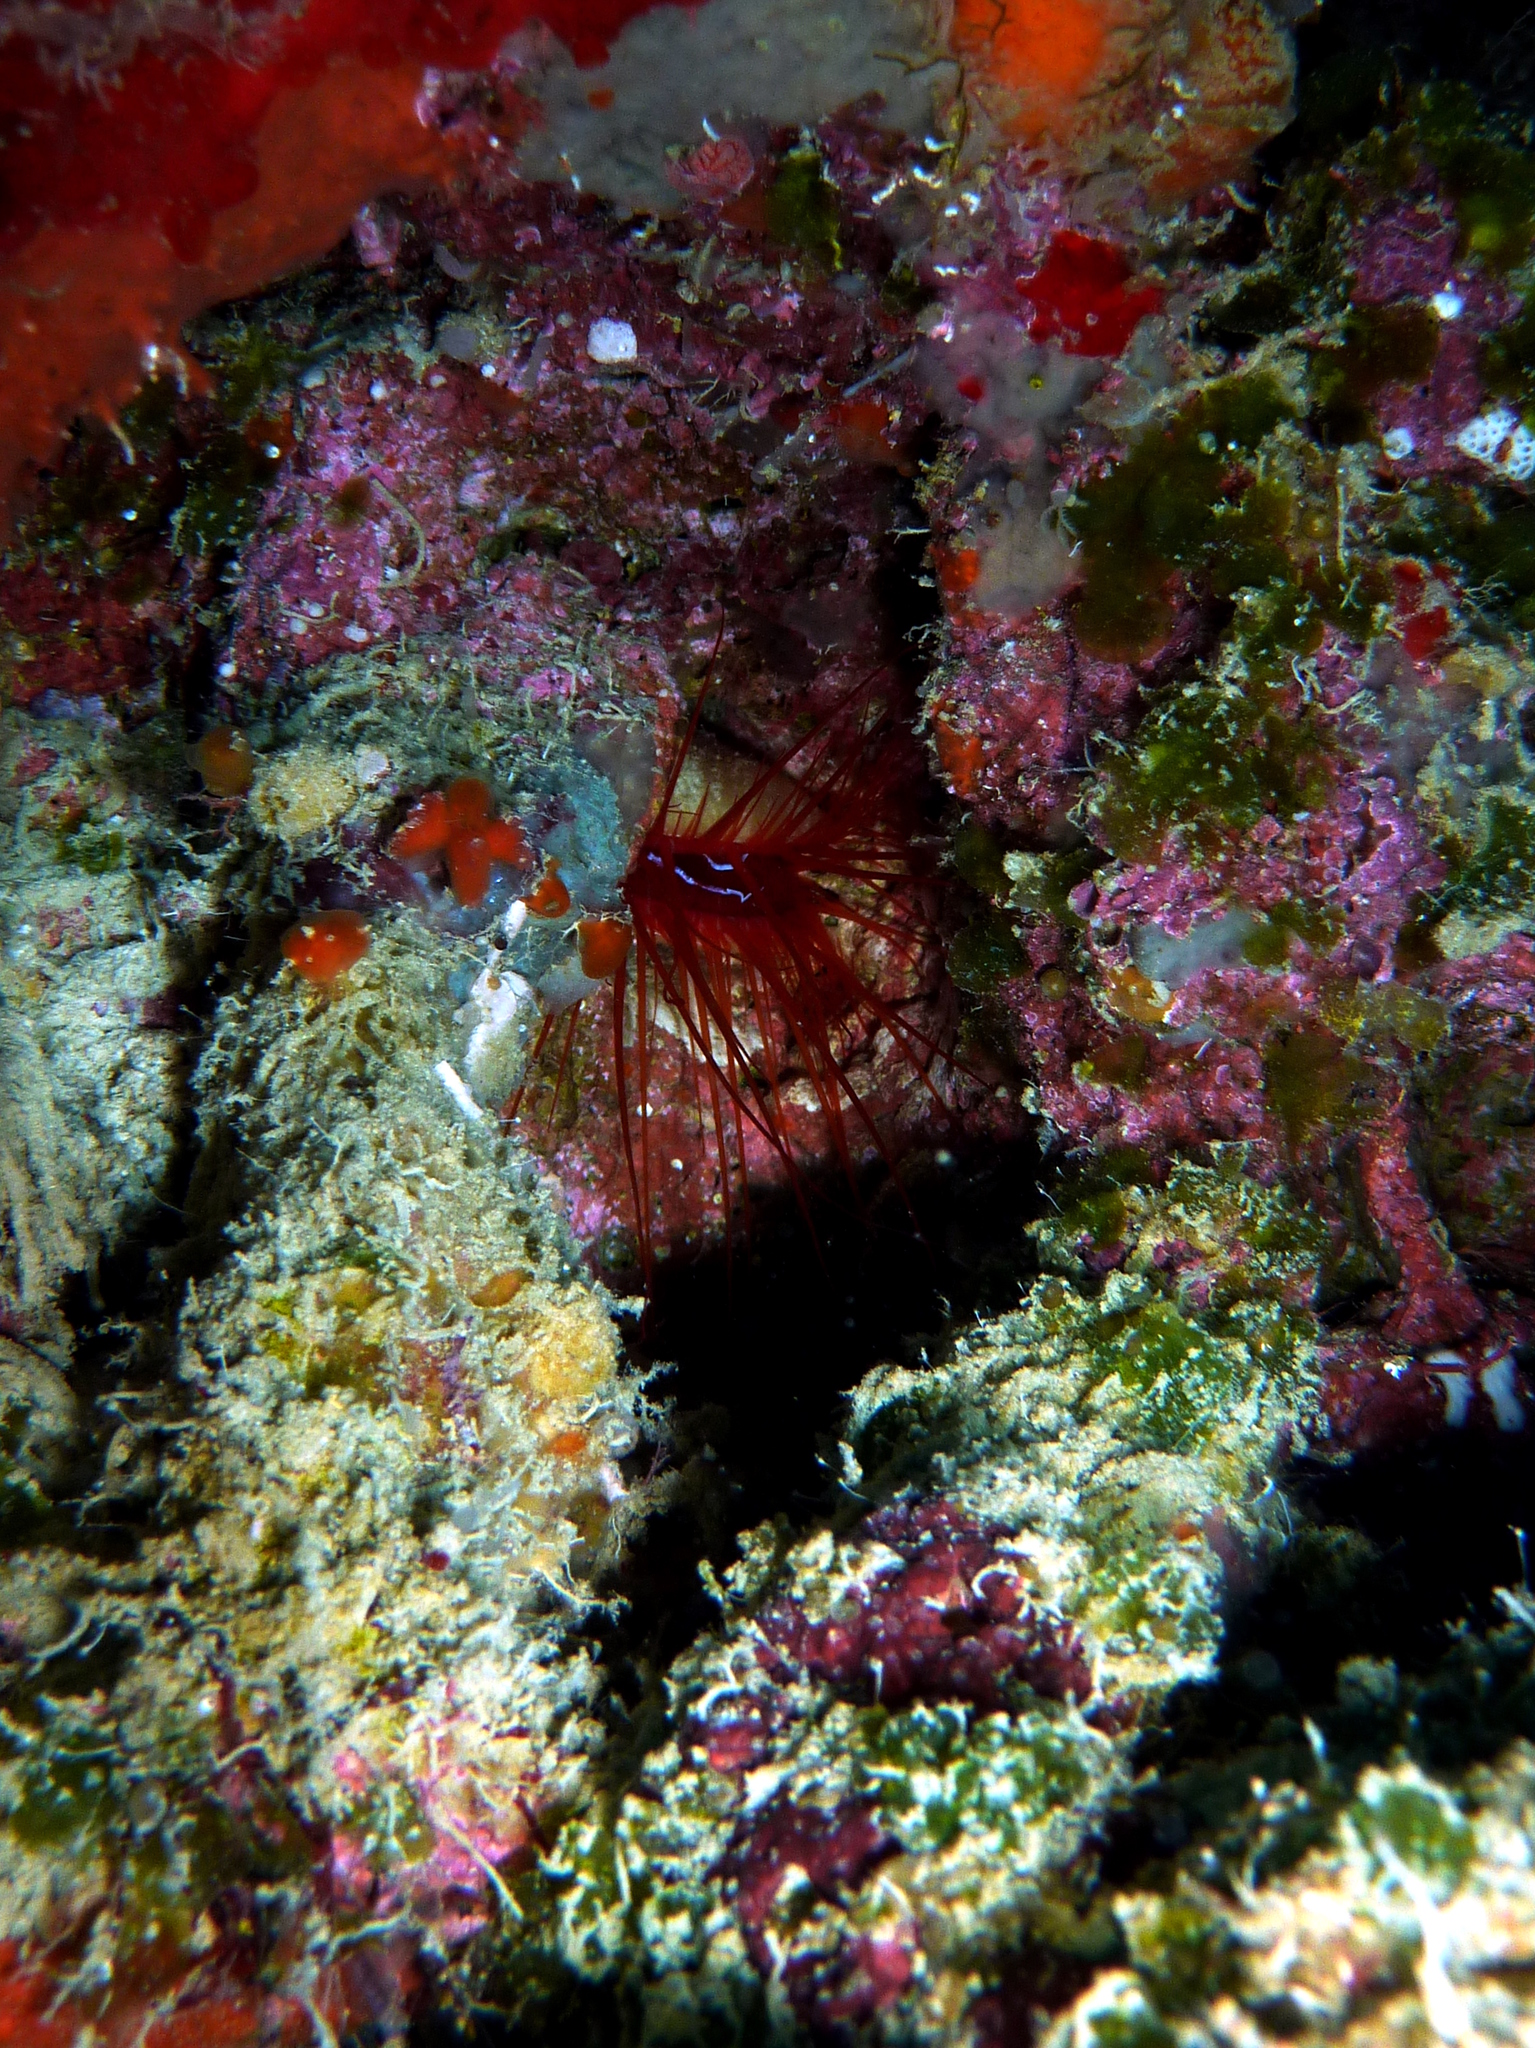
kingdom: Animalia
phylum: Mollusca
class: Bivalvia
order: Limida
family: Limidae
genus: Ctenoides
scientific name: Ctenoides ales
